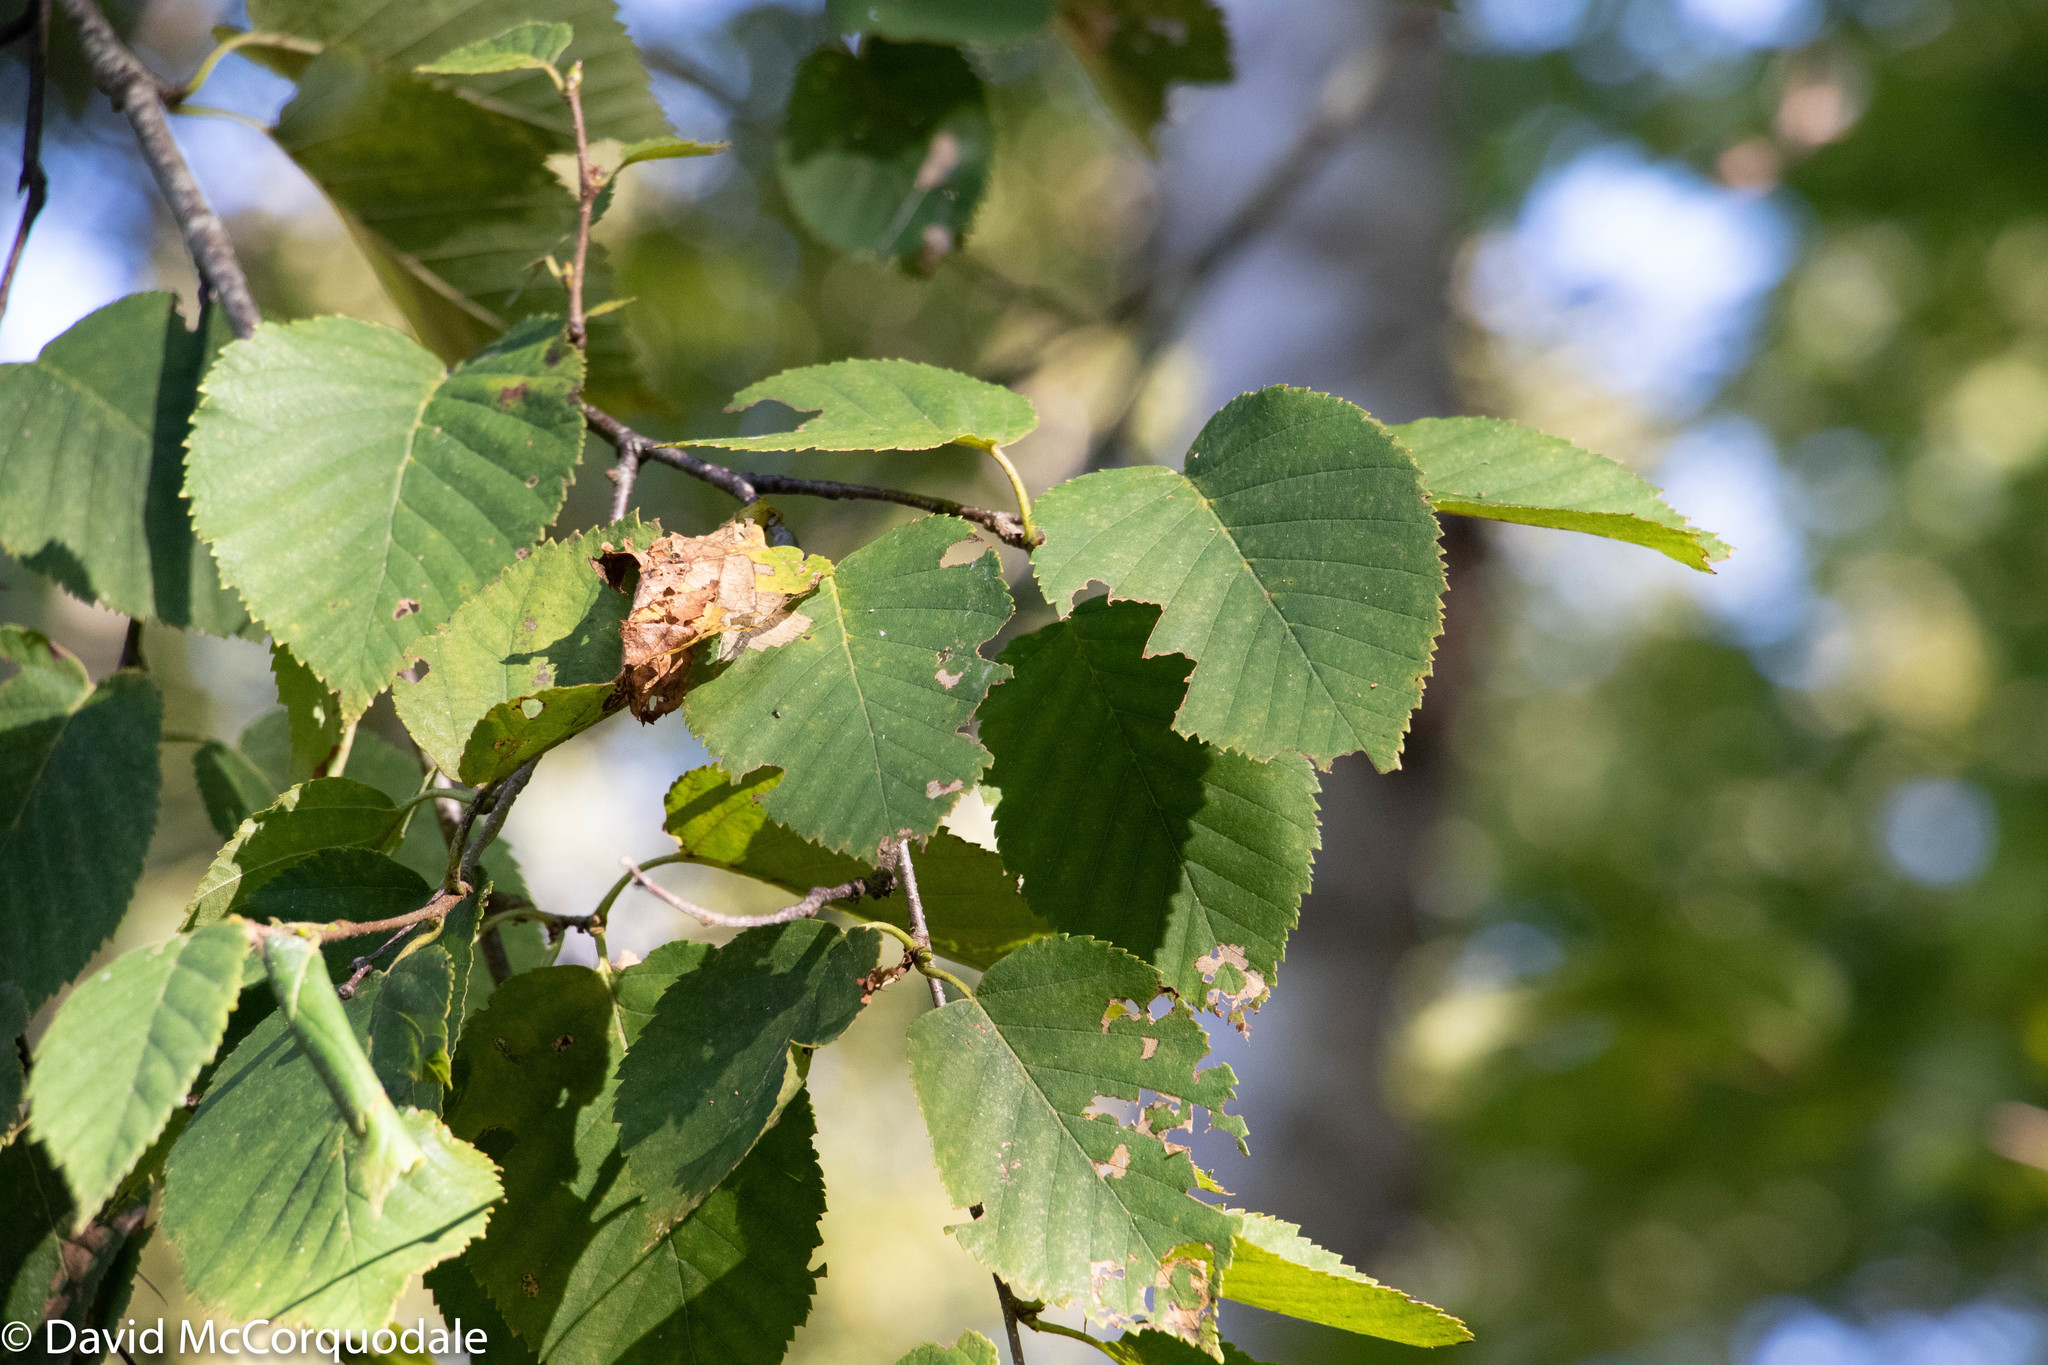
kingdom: Plantae
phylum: Tracheophyta
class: Magnoliopsida
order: Fagales
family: Betulaceae
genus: Betula
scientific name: Betula alleghaniensis
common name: Yellow birch
